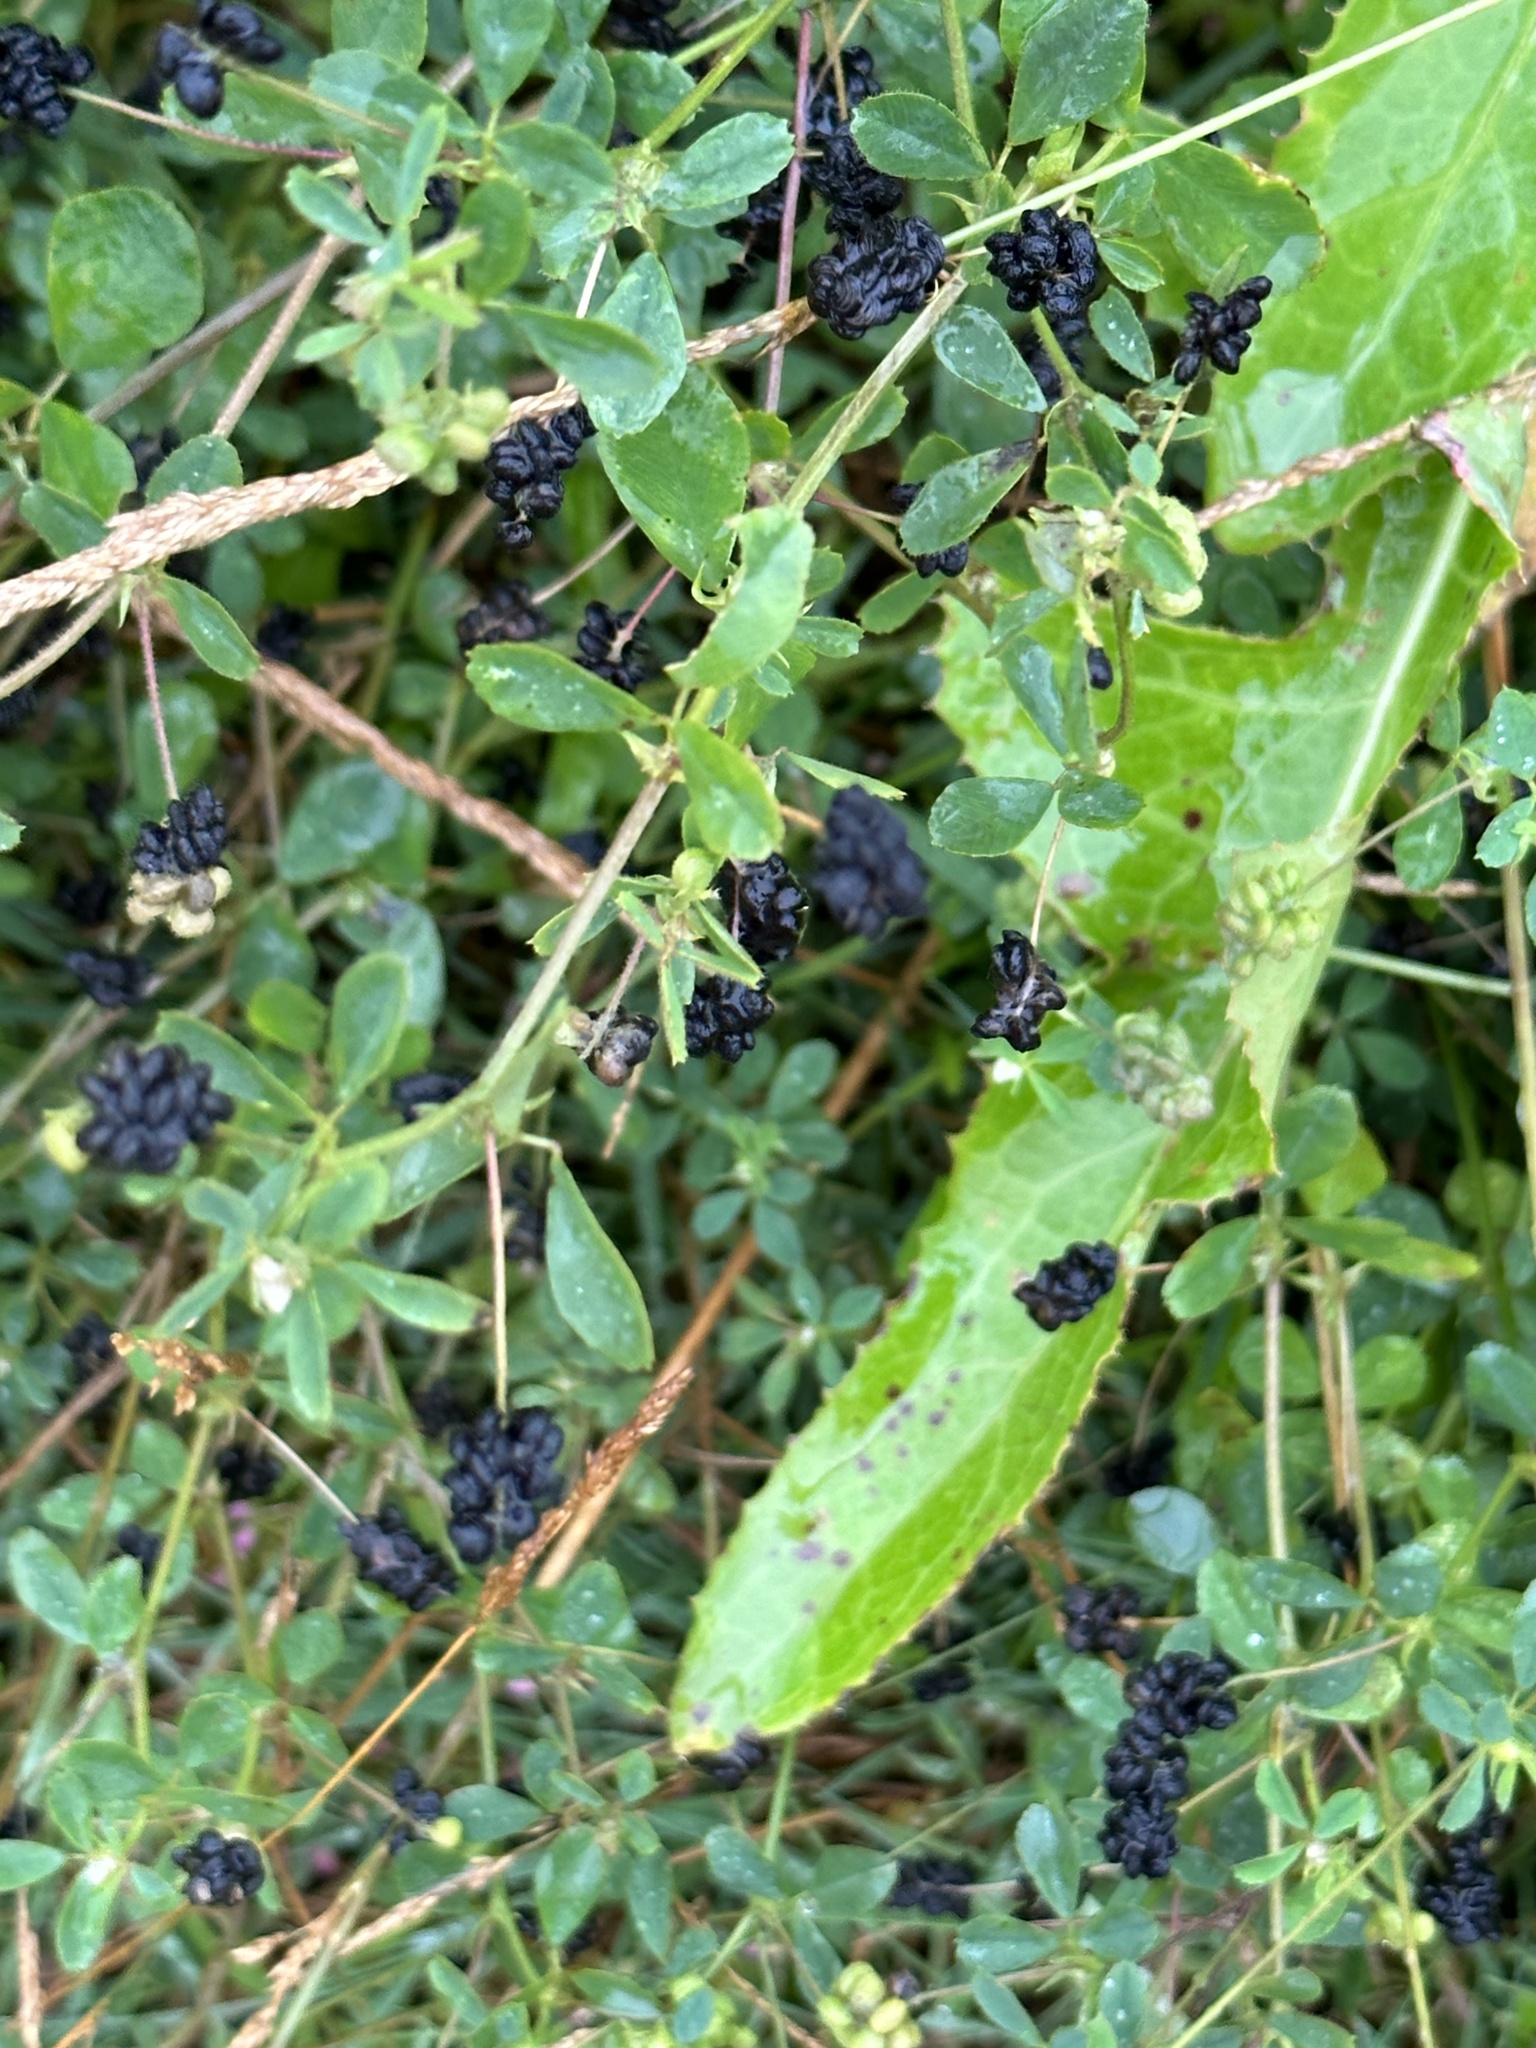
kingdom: Plantae
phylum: Tracheophyta
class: Magnoliopsida
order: Fabales
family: Fabaceae
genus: Medicago
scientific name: Medicago lupulina
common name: Black medick
